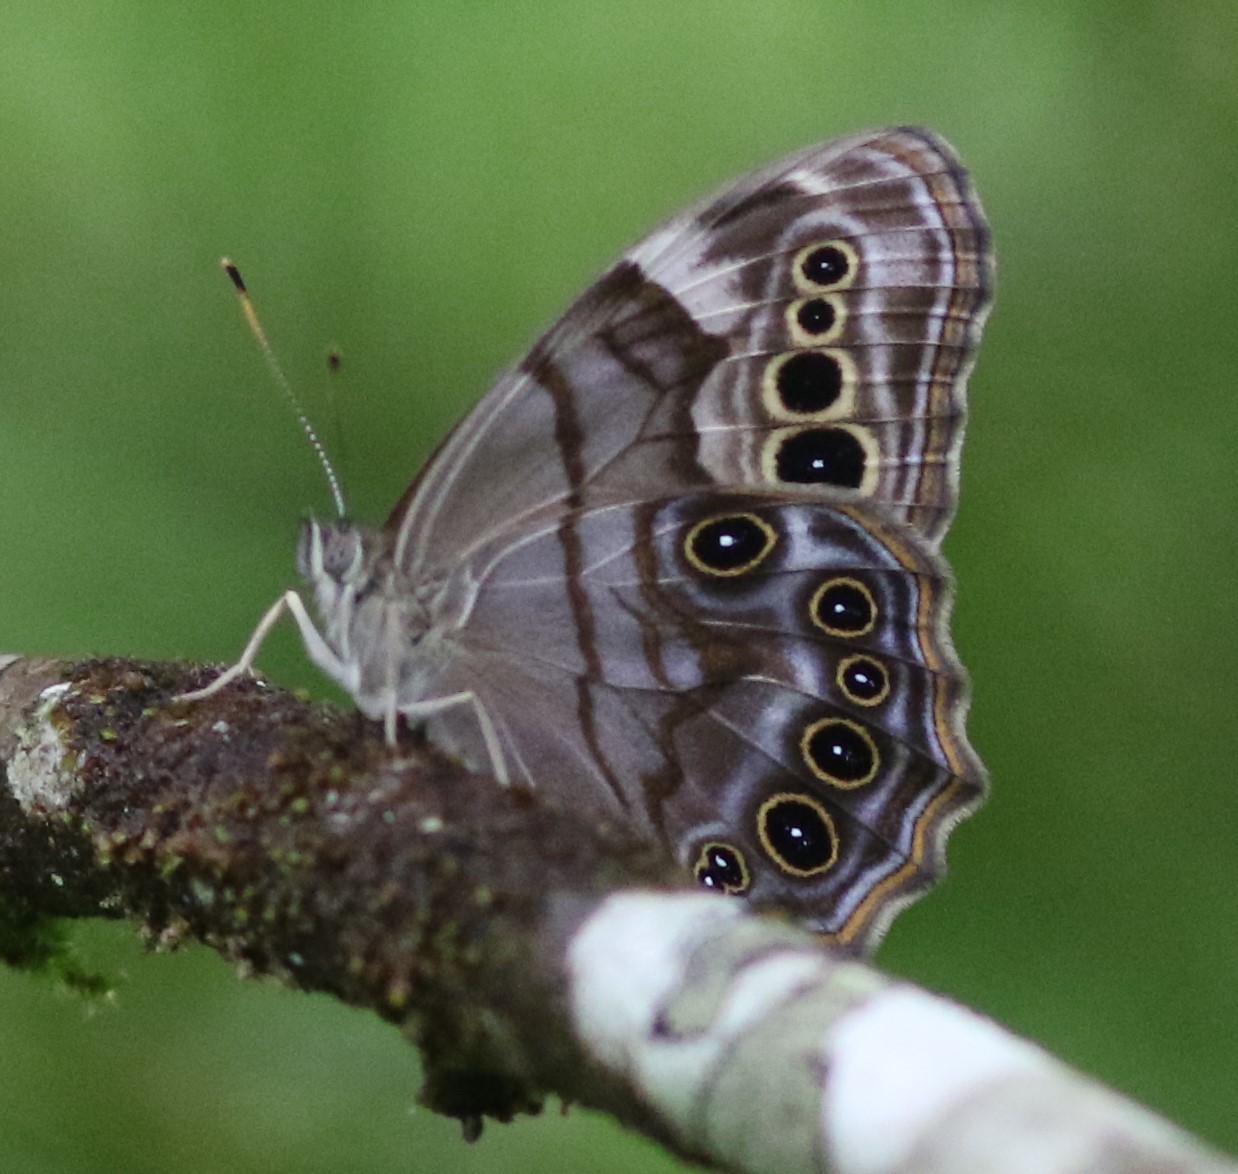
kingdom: Animalia
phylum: Arthropoda
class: Insecta
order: Lepidoptera
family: Nymphalidae
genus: Lethe
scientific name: Lethe anthedon
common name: Northern pearly-eye
